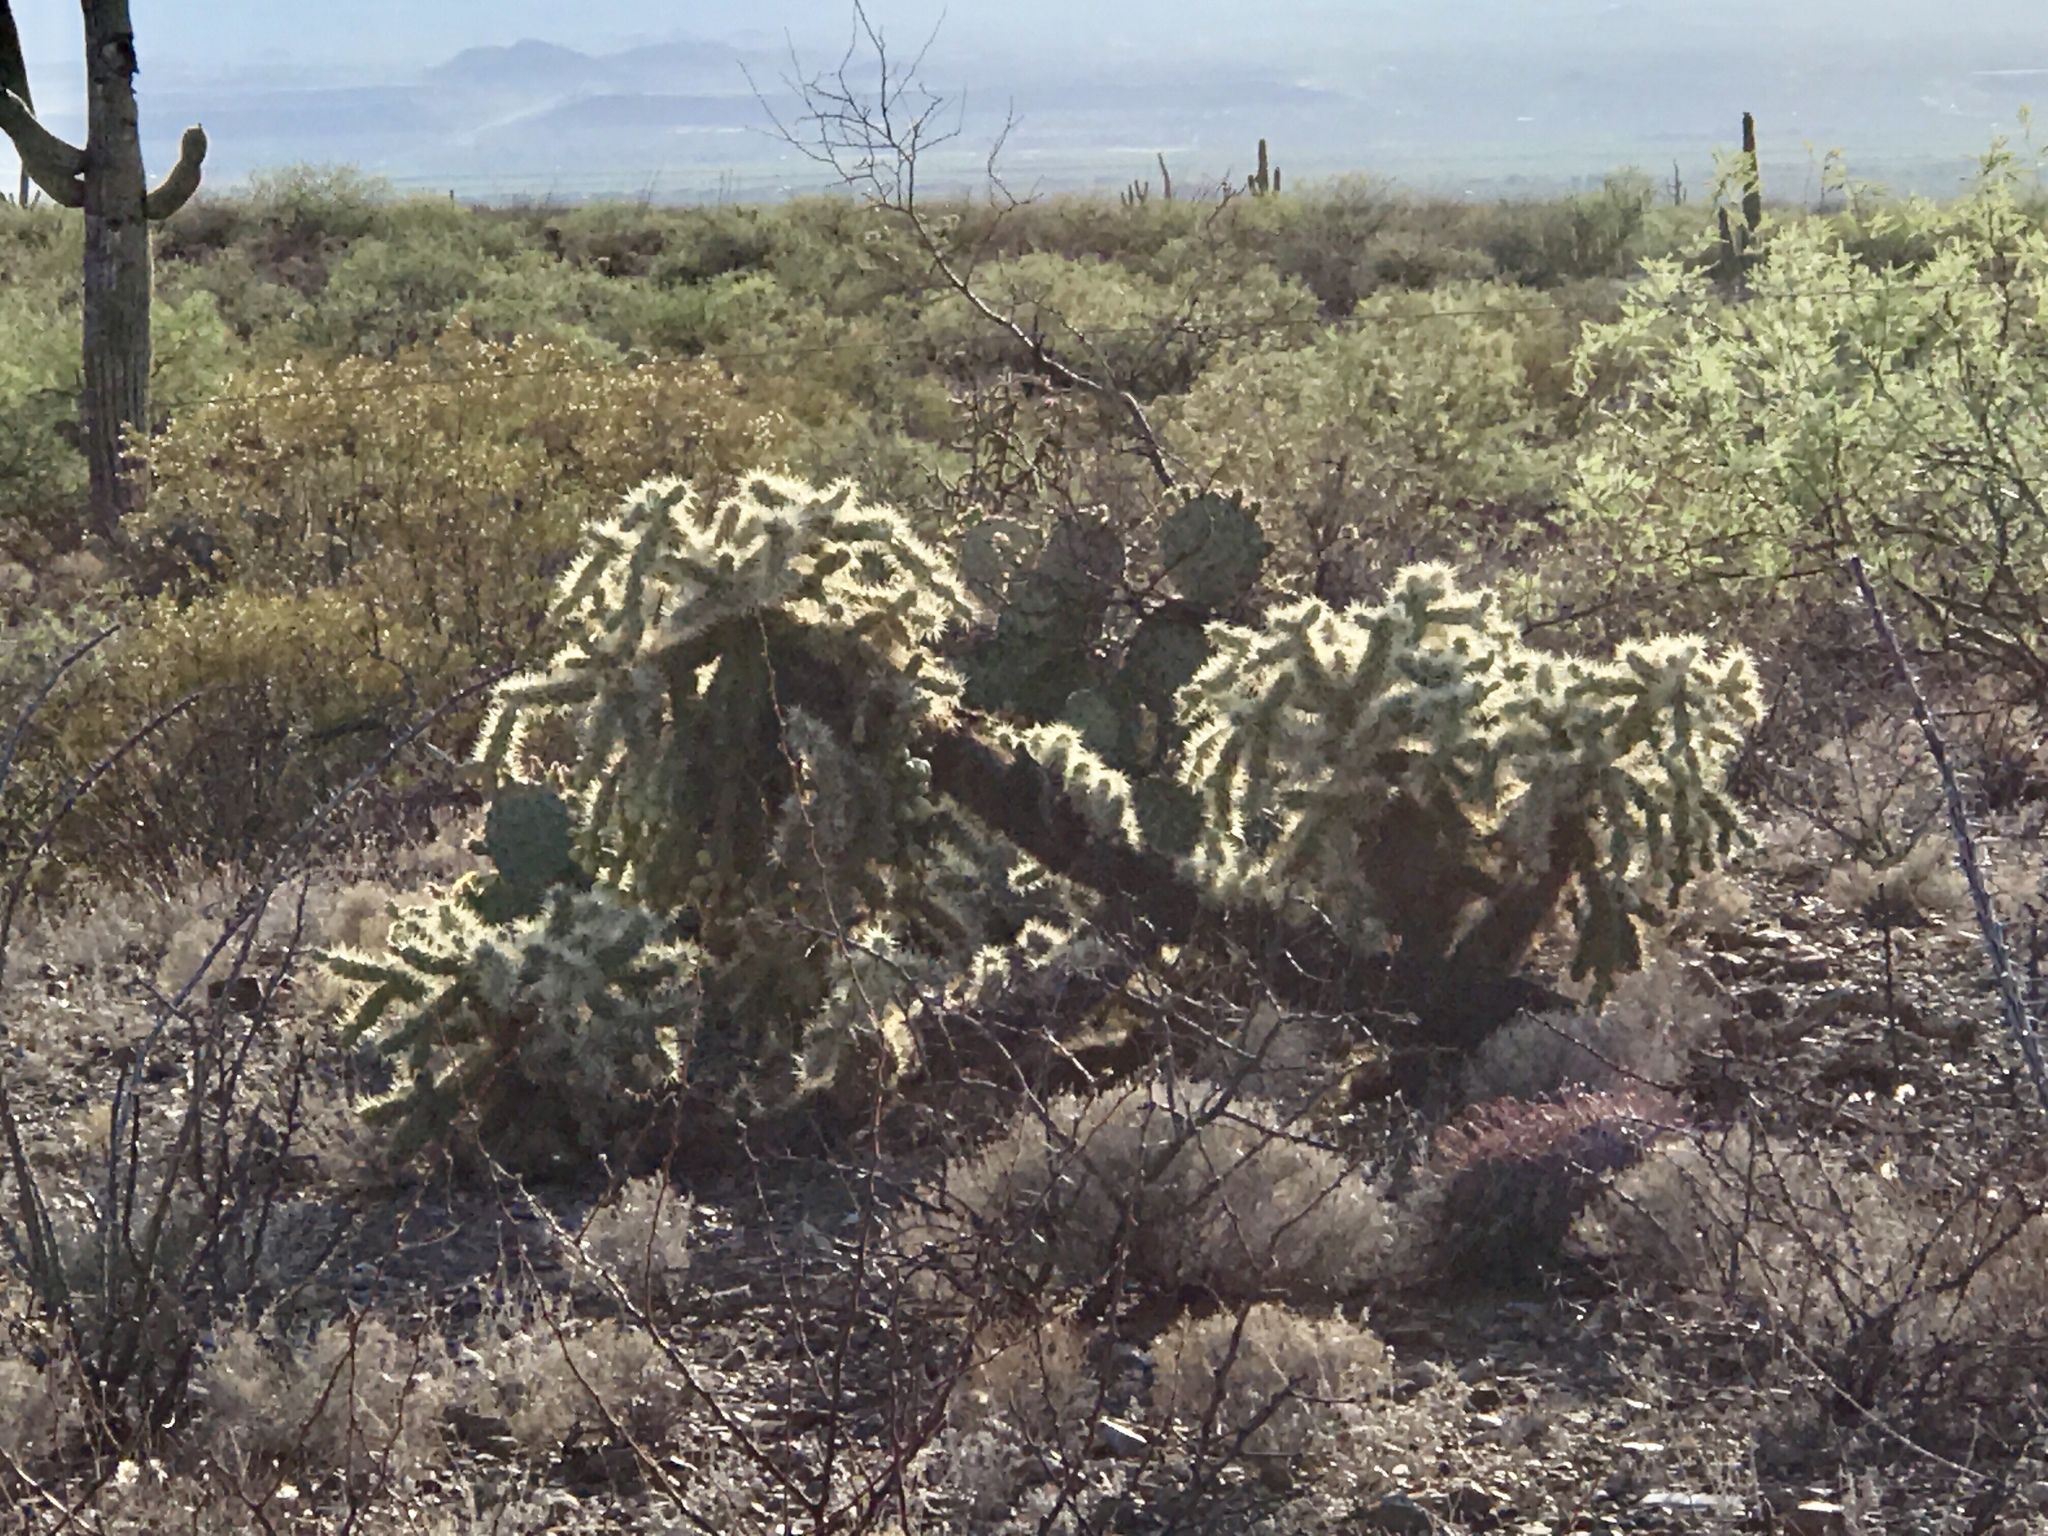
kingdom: Plantae
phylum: Tracheophyta
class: Magnoliopsida
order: Caryophyllales
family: Cactaceae
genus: Cylindropuntia
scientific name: Cylindropuntia fulgida
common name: Jumping cholla
